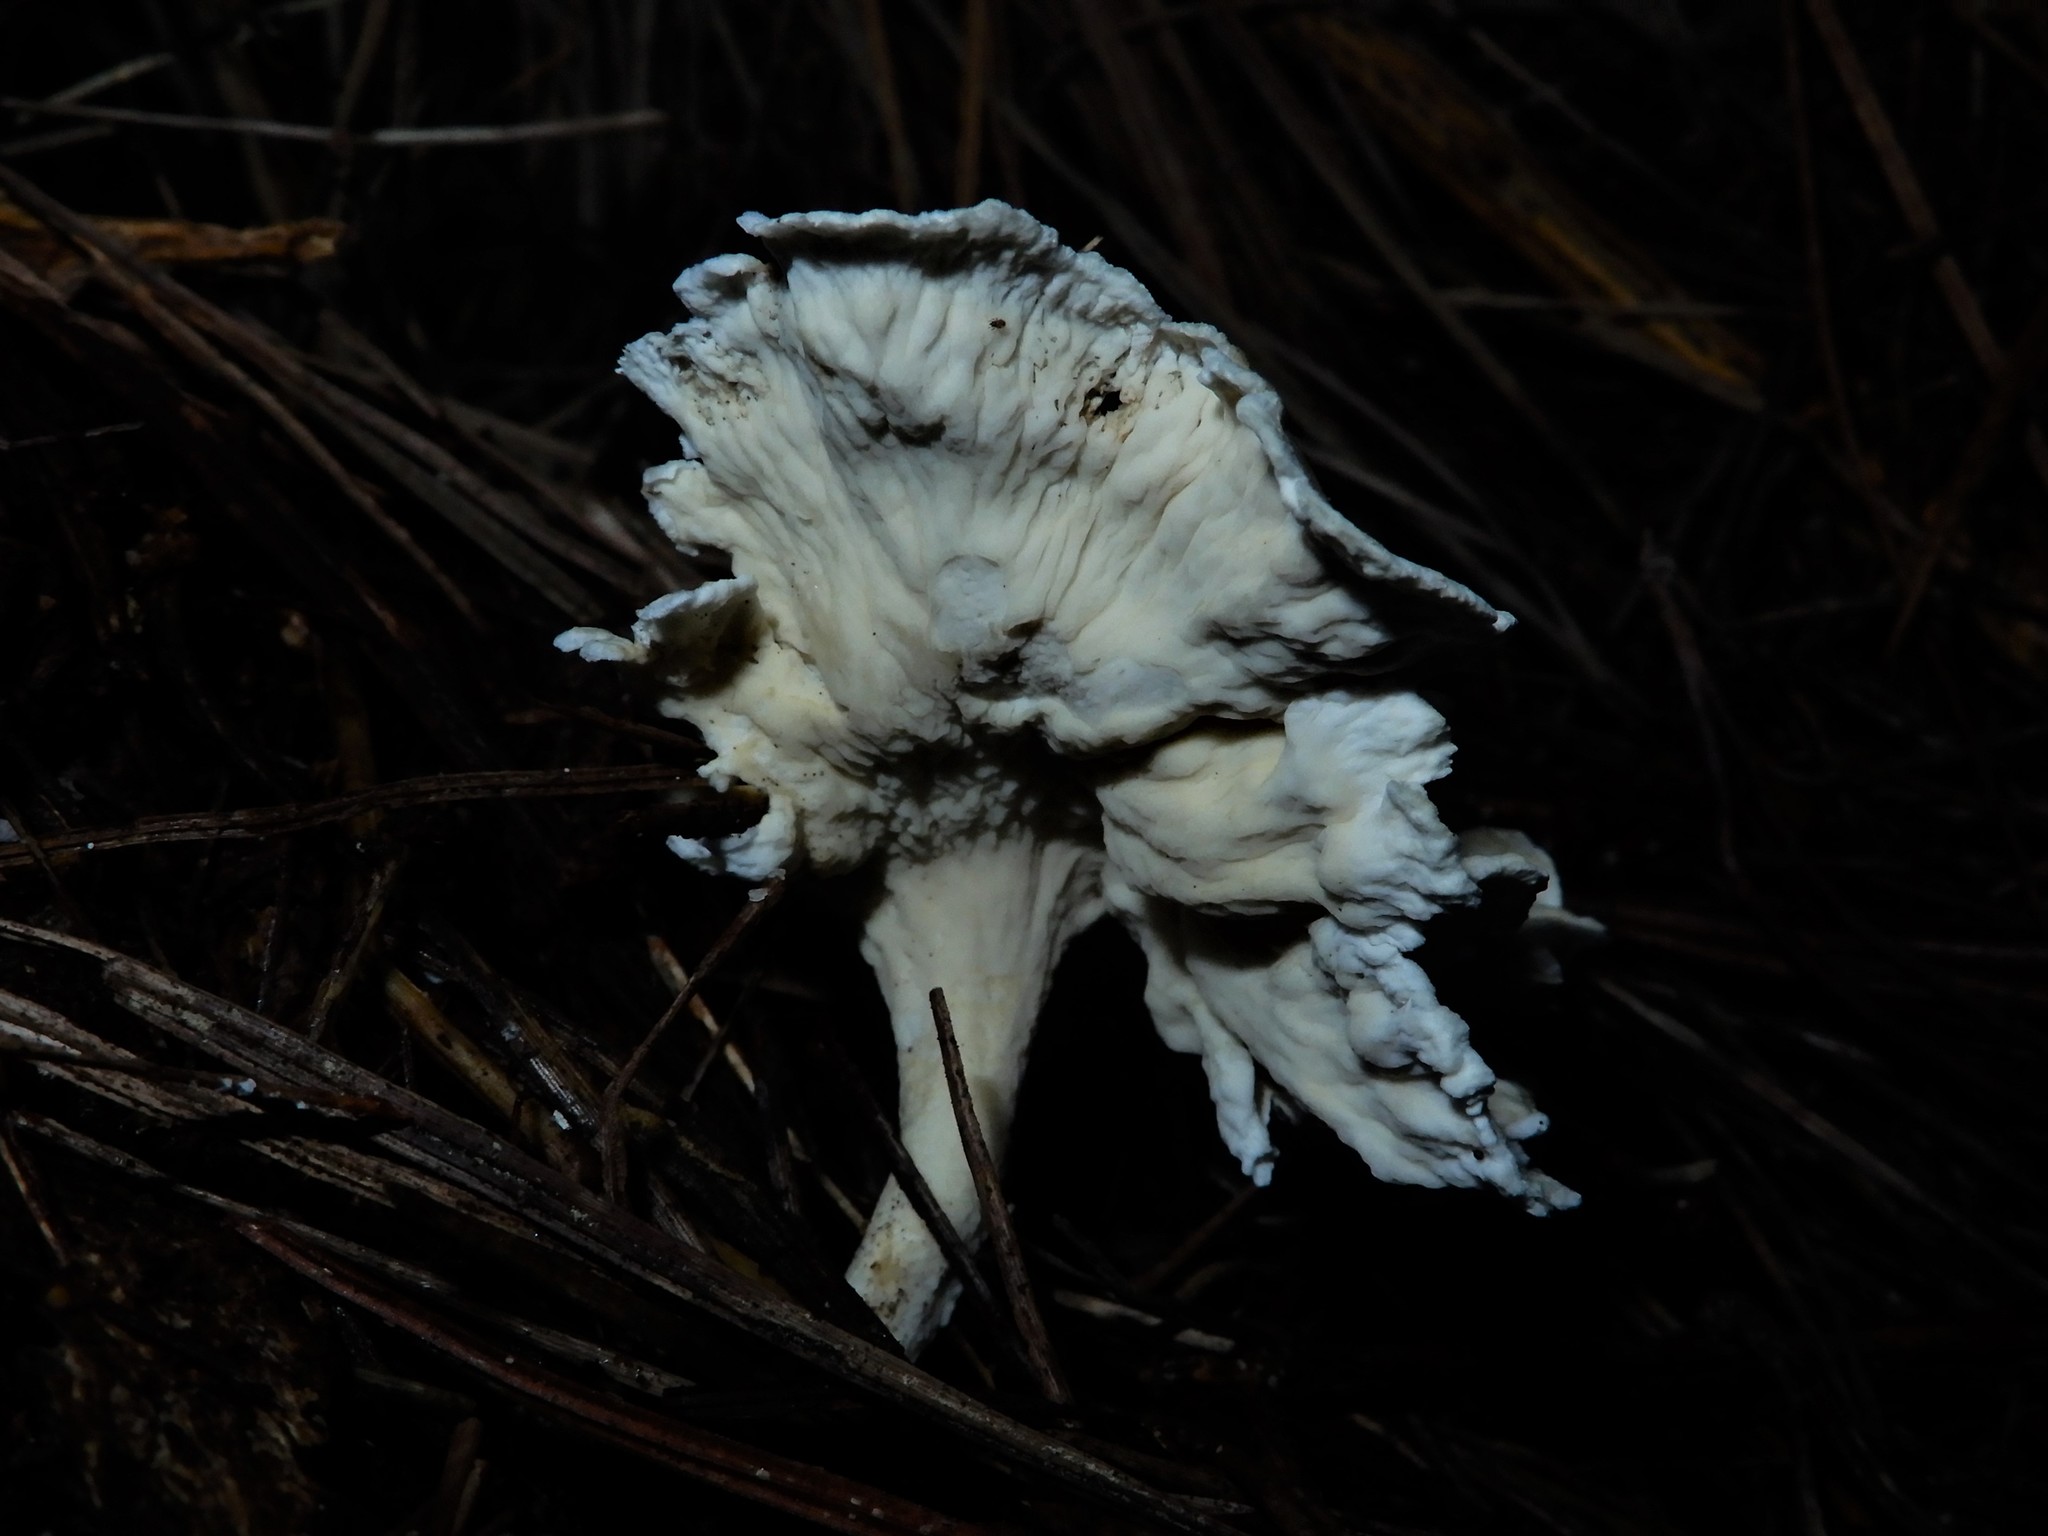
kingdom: Fungi
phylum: Basidiomycota
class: Agaricomycetes
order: Amylocorticiales
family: Amylocorticiaceae
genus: Podoserpula
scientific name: Podoserpula
